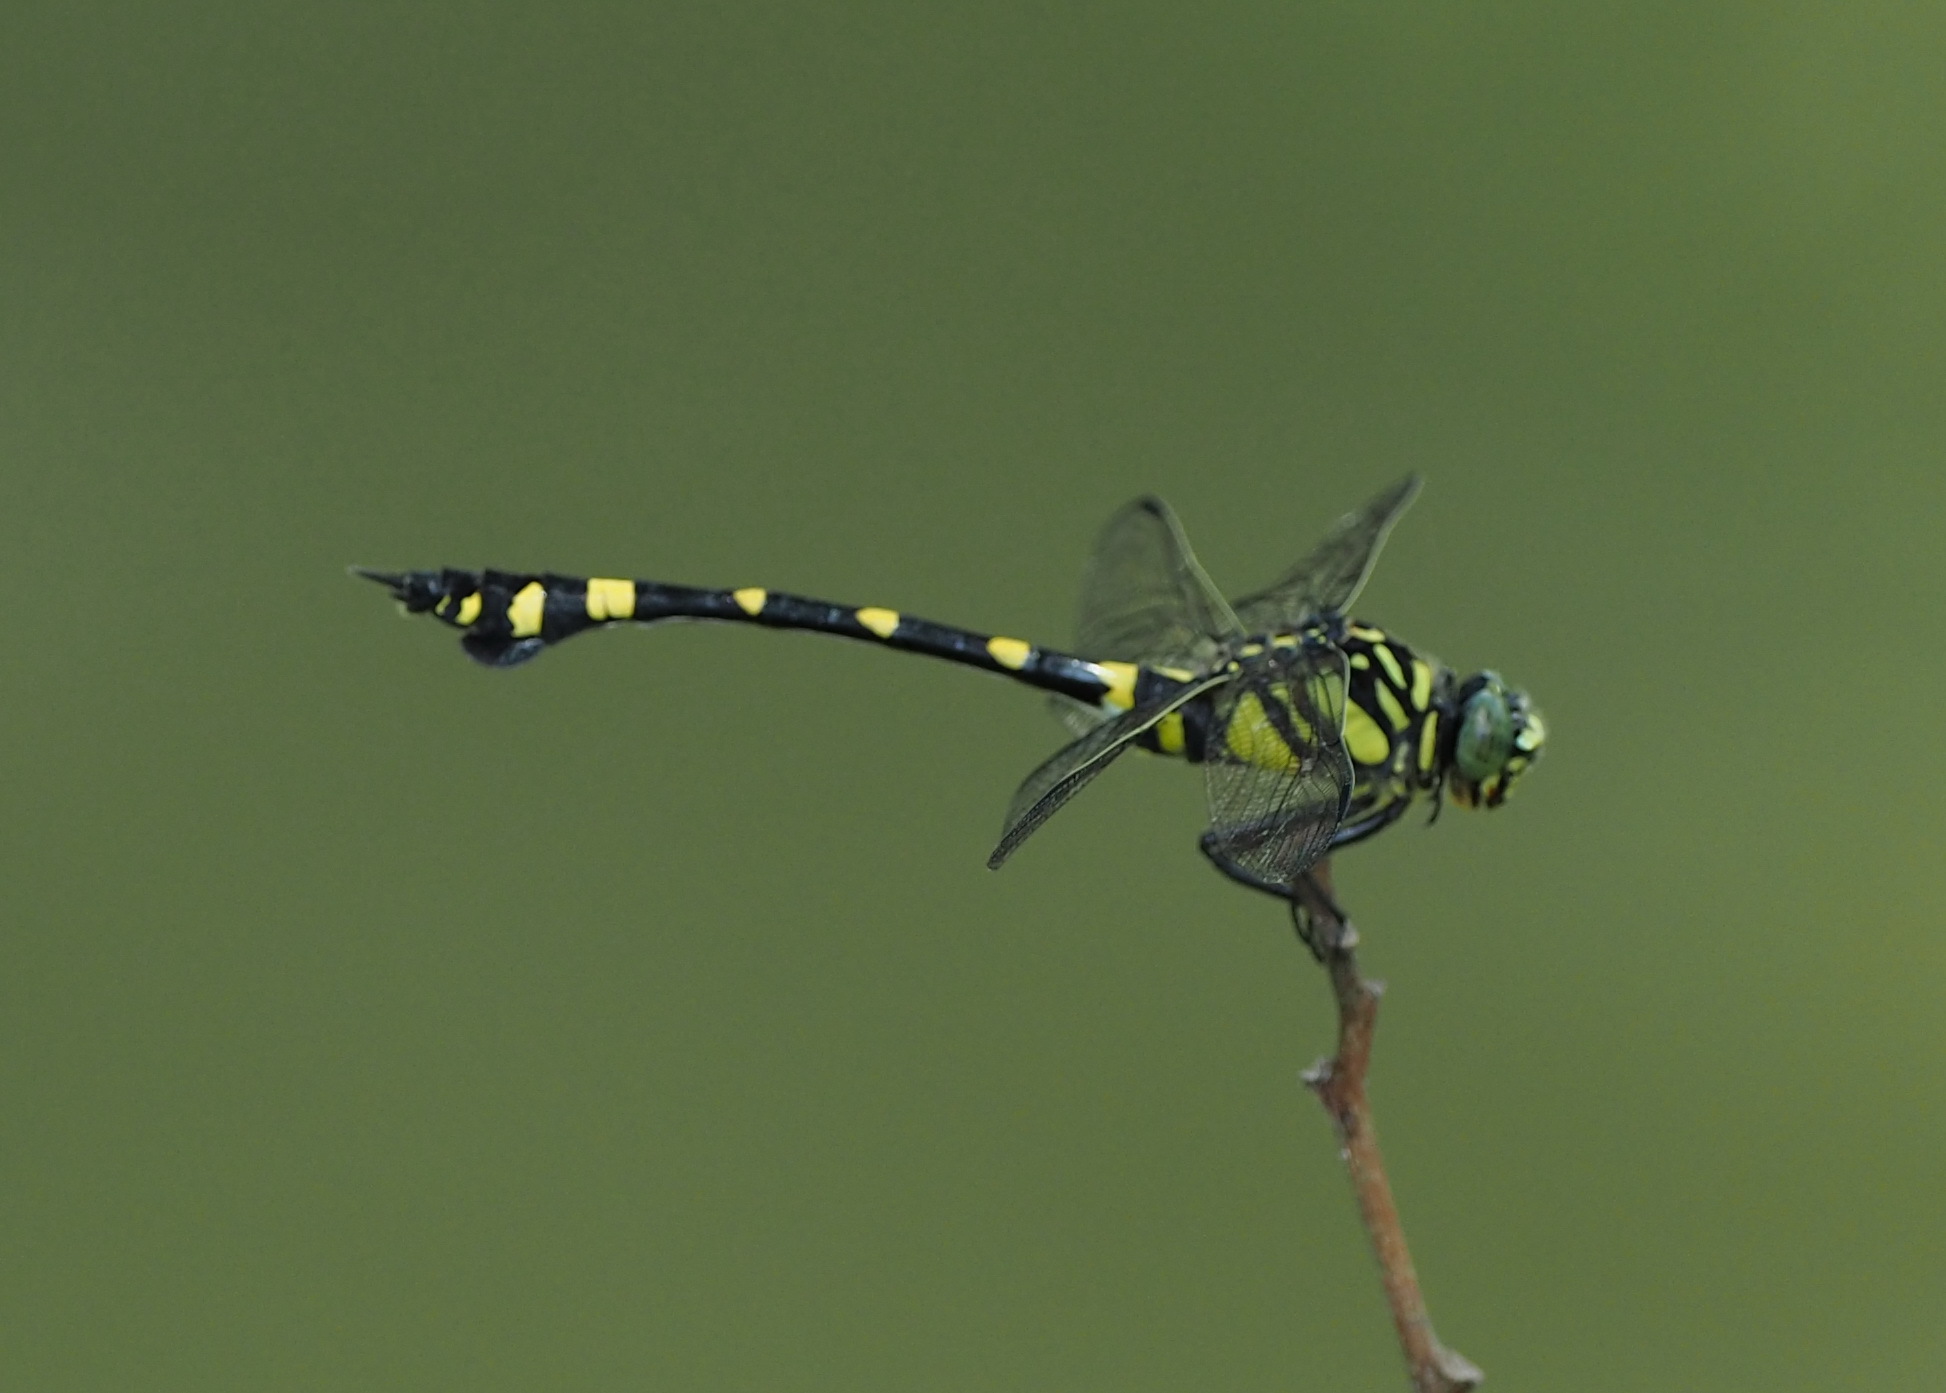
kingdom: Animalia
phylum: Arthropoda
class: Insecta
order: Odonata
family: Gomphidae
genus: Ictinogomphus
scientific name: Ictinogomphus rapax
